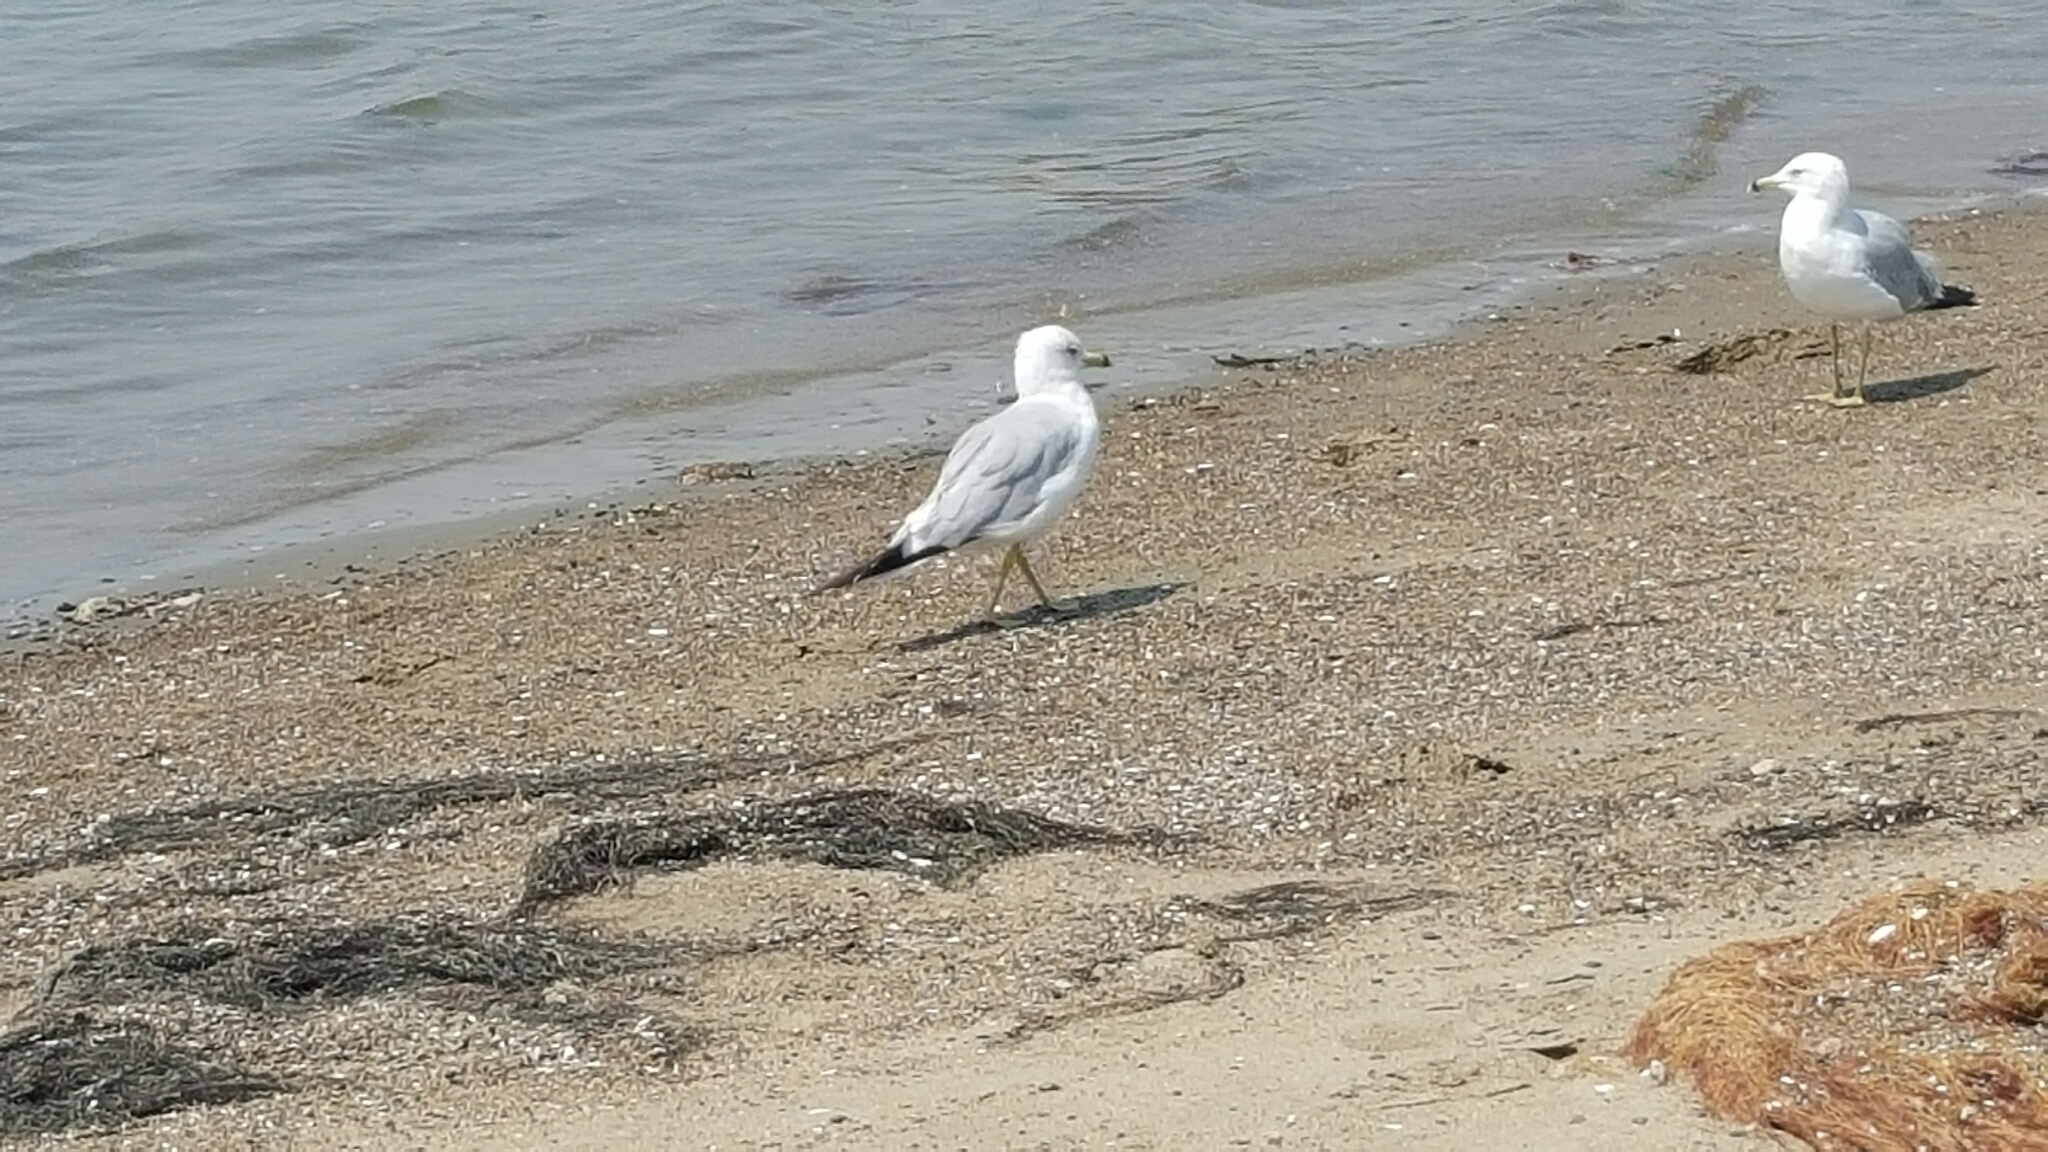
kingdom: Animalia
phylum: Chordata
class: Aves
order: Charadriiformes
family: Laridae
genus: Larus
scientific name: Larus delawarensis
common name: Ring-billed gull
